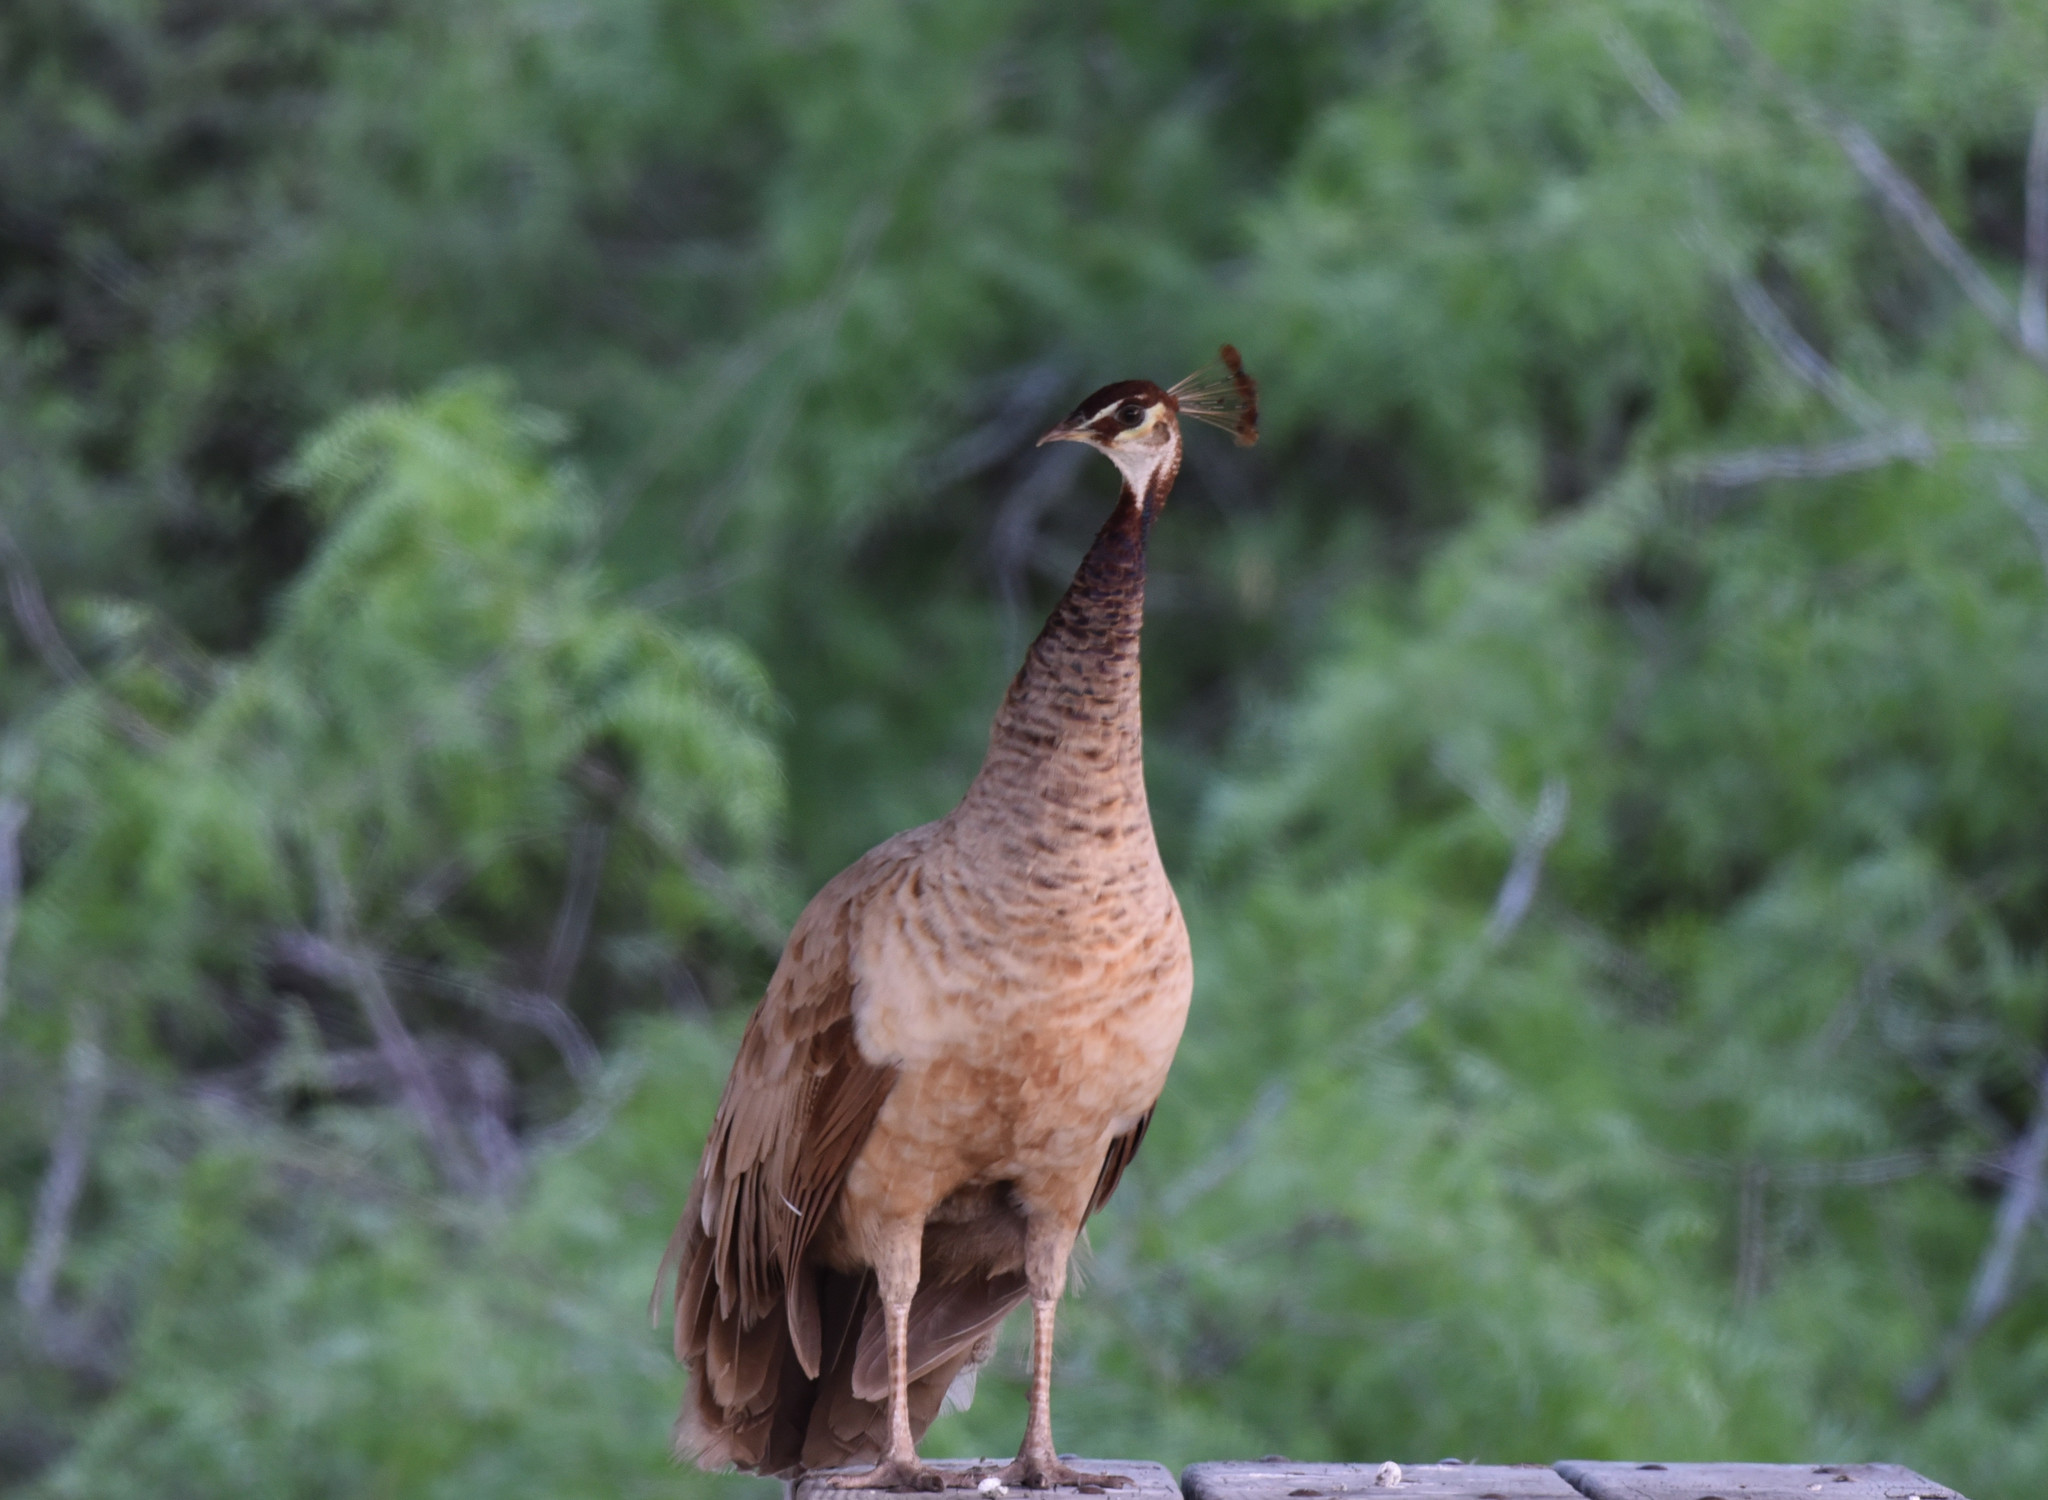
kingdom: Animalia
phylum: Chordata
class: Aves
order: Galliformes
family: Phasianidae
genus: Pavo
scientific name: Pavo cristatus
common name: Indian peafowl
